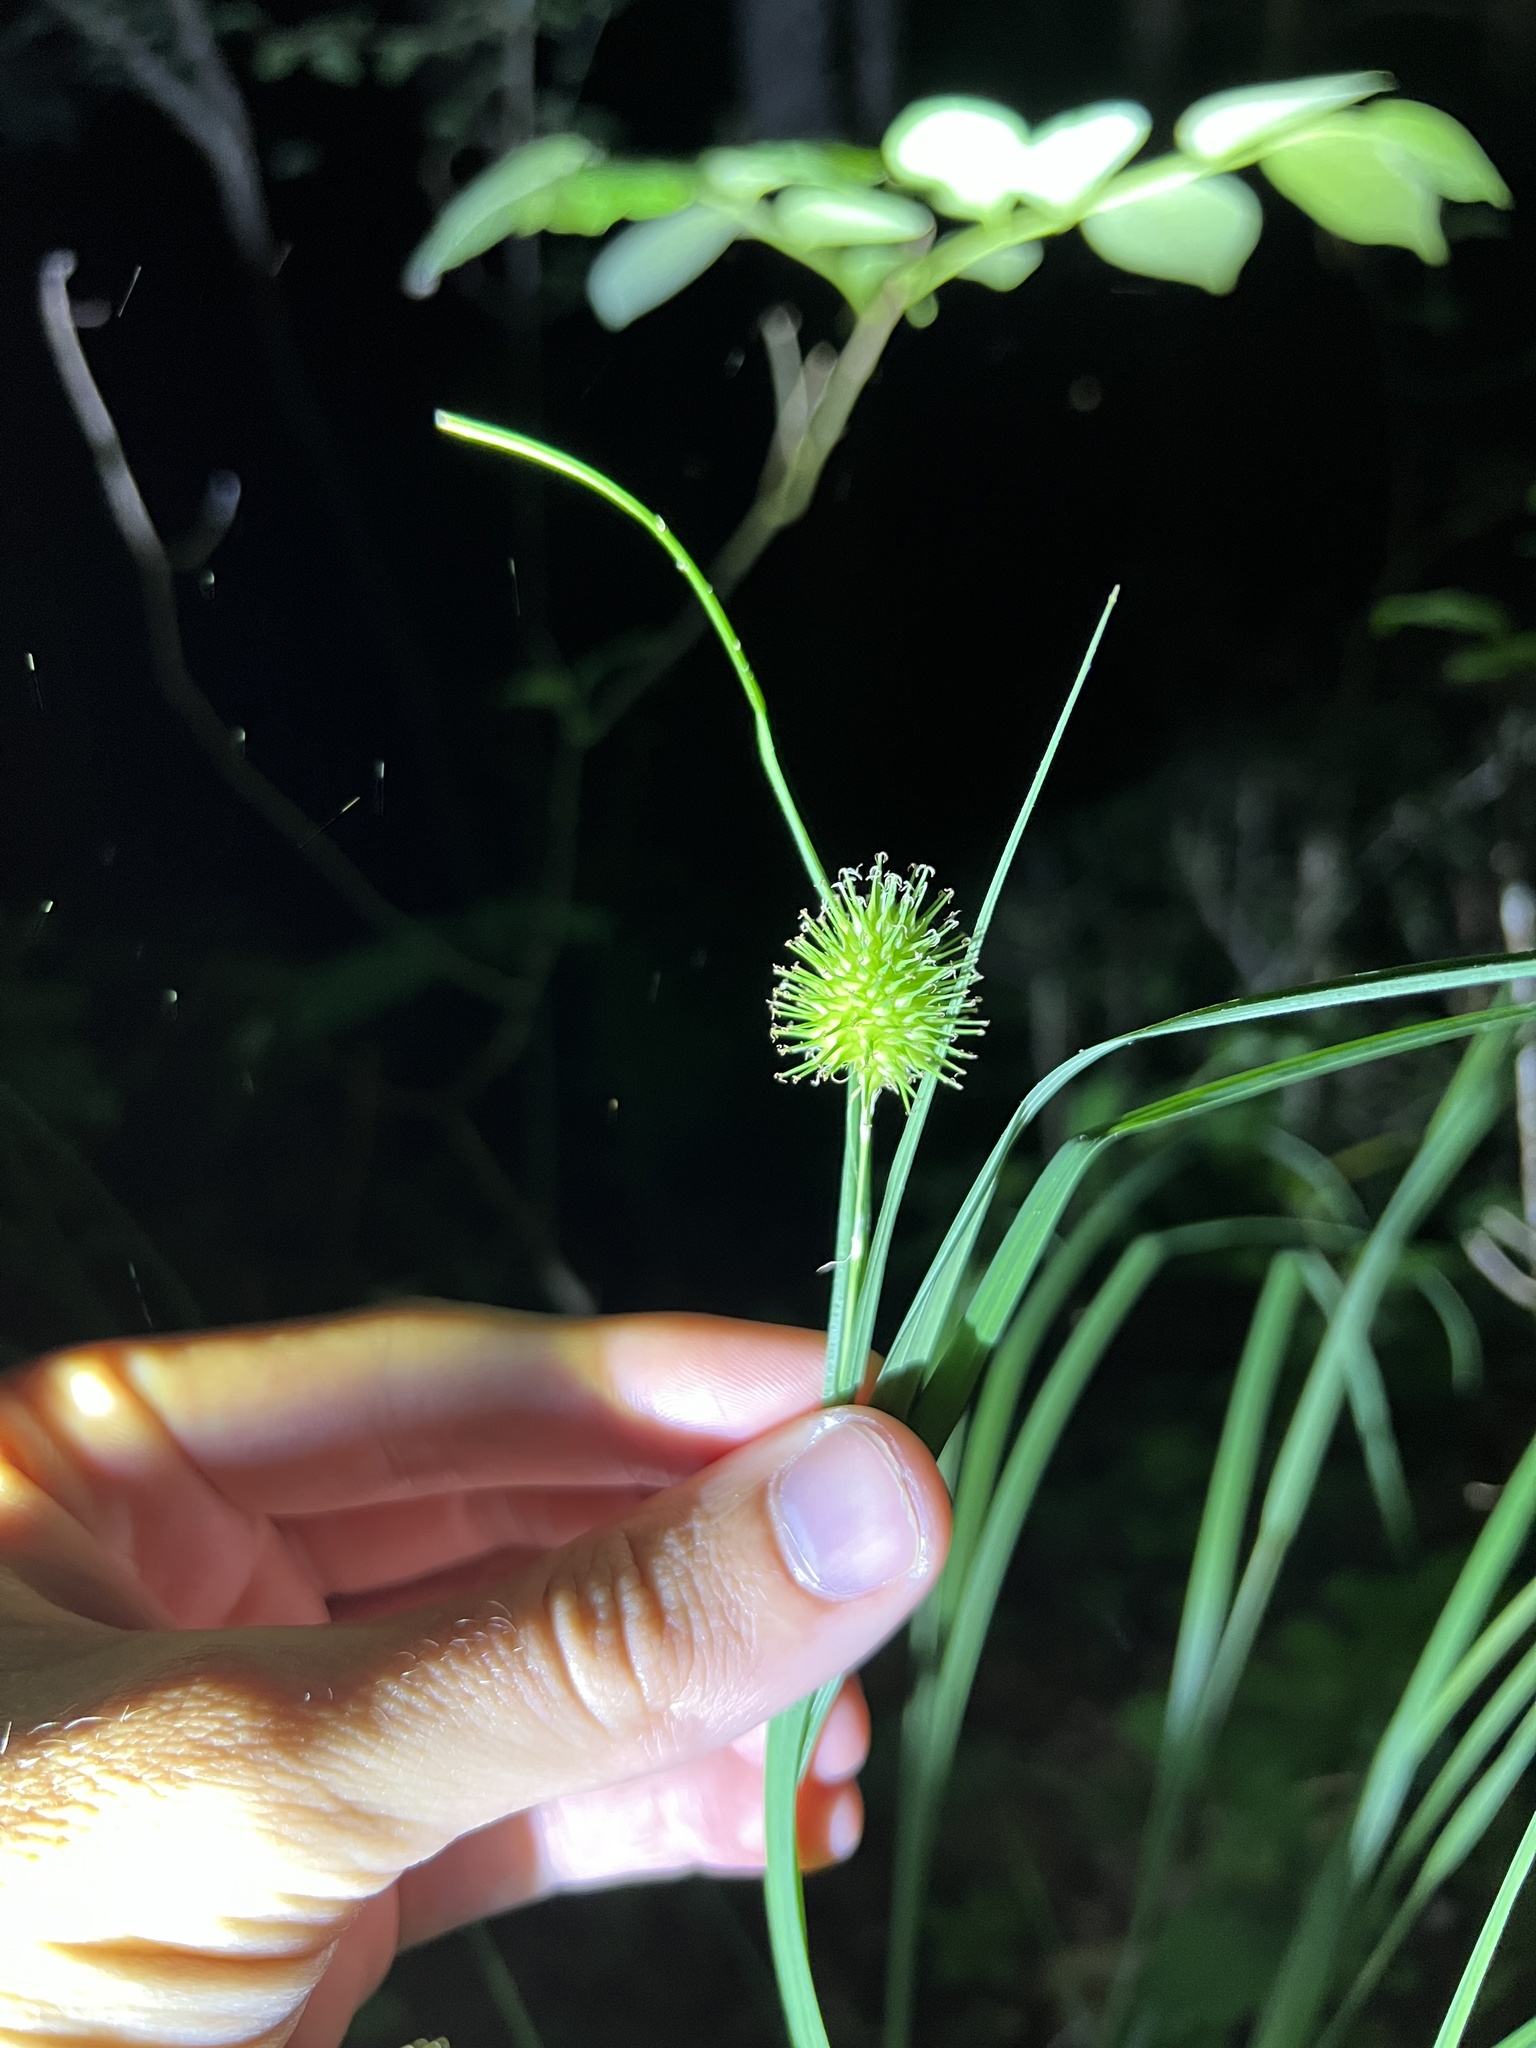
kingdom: Plantae
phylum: Tracheophyta
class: Liliopsida
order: Poales
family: Cyperaceae
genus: Carex
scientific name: Carex squarrosa
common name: Narrow-leaved cattail sedge
